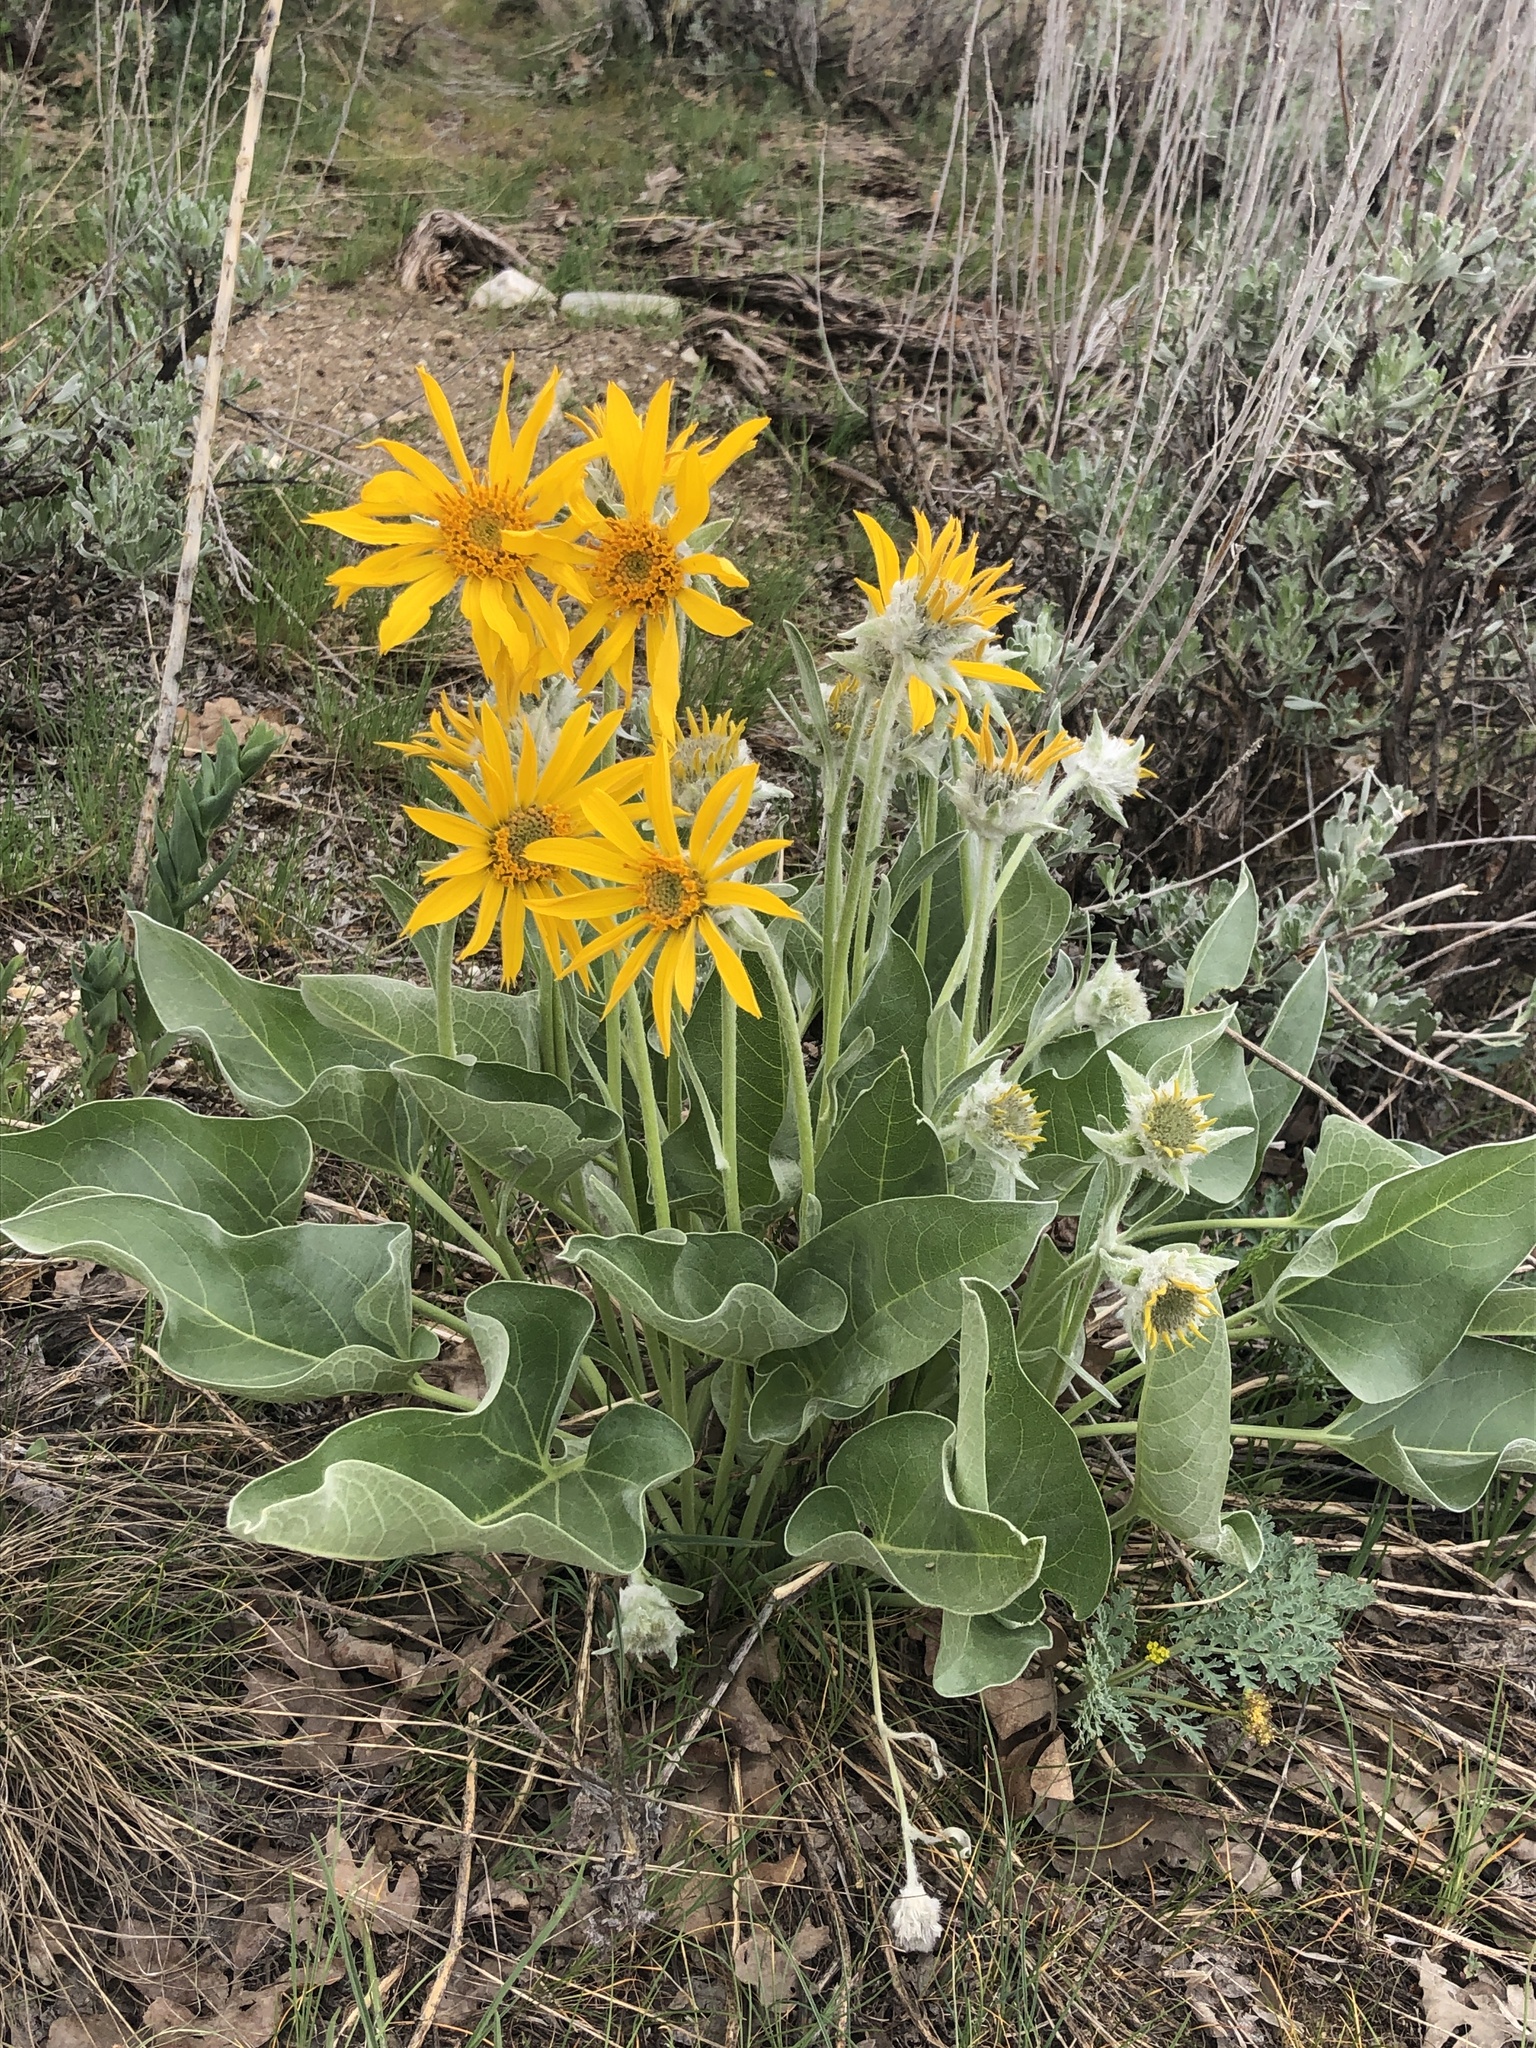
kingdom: Plantae
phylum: Tracheophyta
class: Magnoliopsida
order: Asterales
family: Asteraceae
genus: Wyethia
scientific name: Wyethia sagittata
